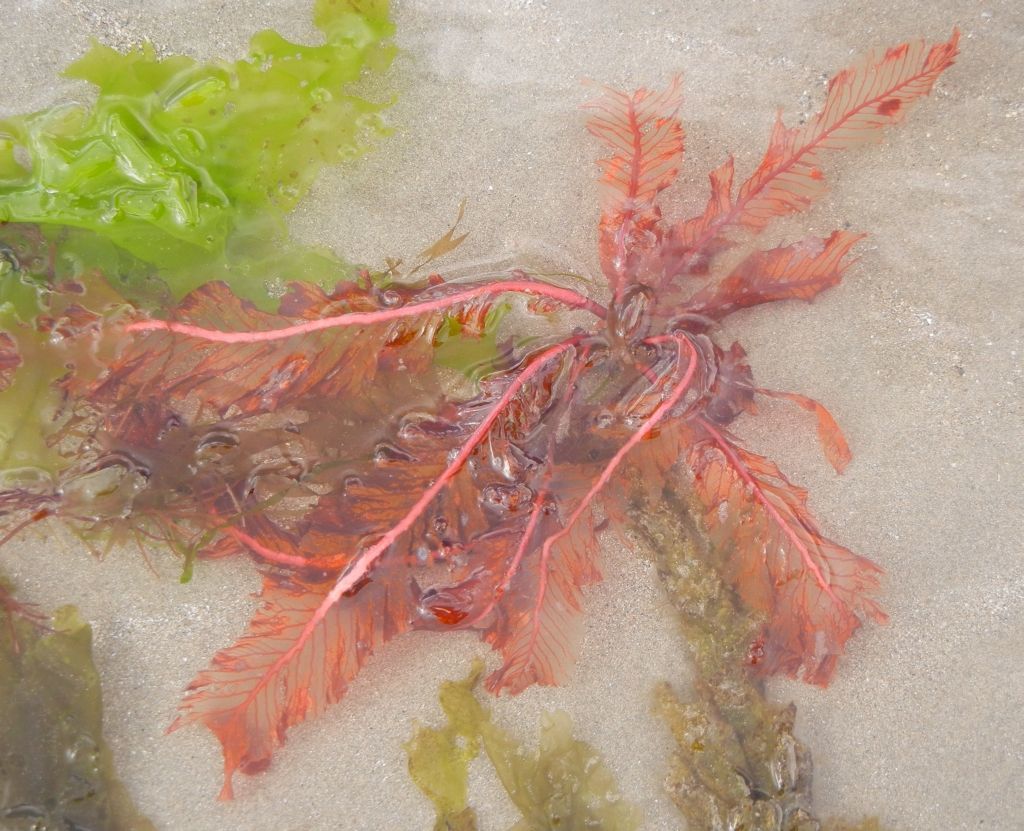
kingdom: Plantae
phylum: Rhodophyta
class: Florideophyceae
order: Ceramiales
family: Delesseriaceae
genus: Delesseria
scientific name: Delesseria sanguinea
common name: Sea beech
